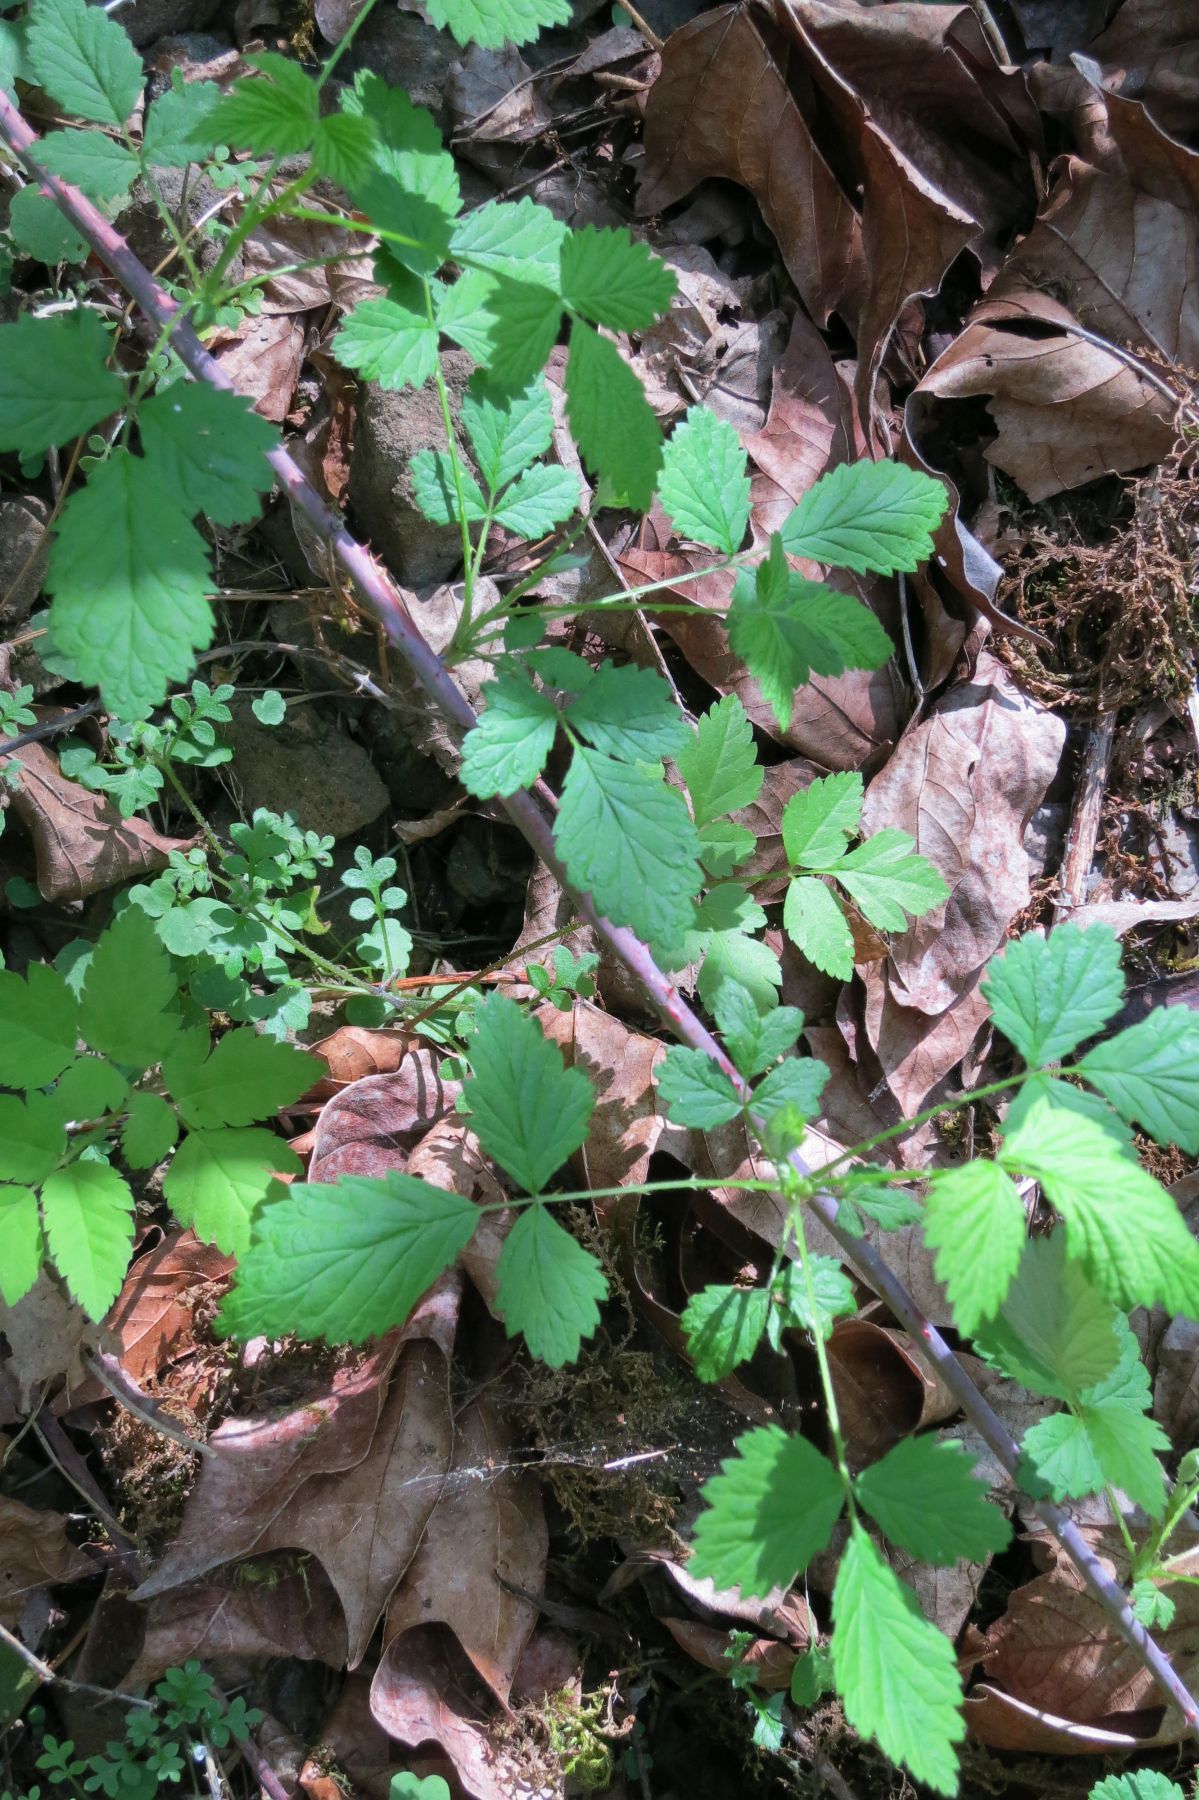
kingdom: Plantae
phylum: Tracheophyta
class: Magnoliopsida
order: Rosales
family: Rosaceae
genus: Rubus
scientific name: Rubus leucodermis
